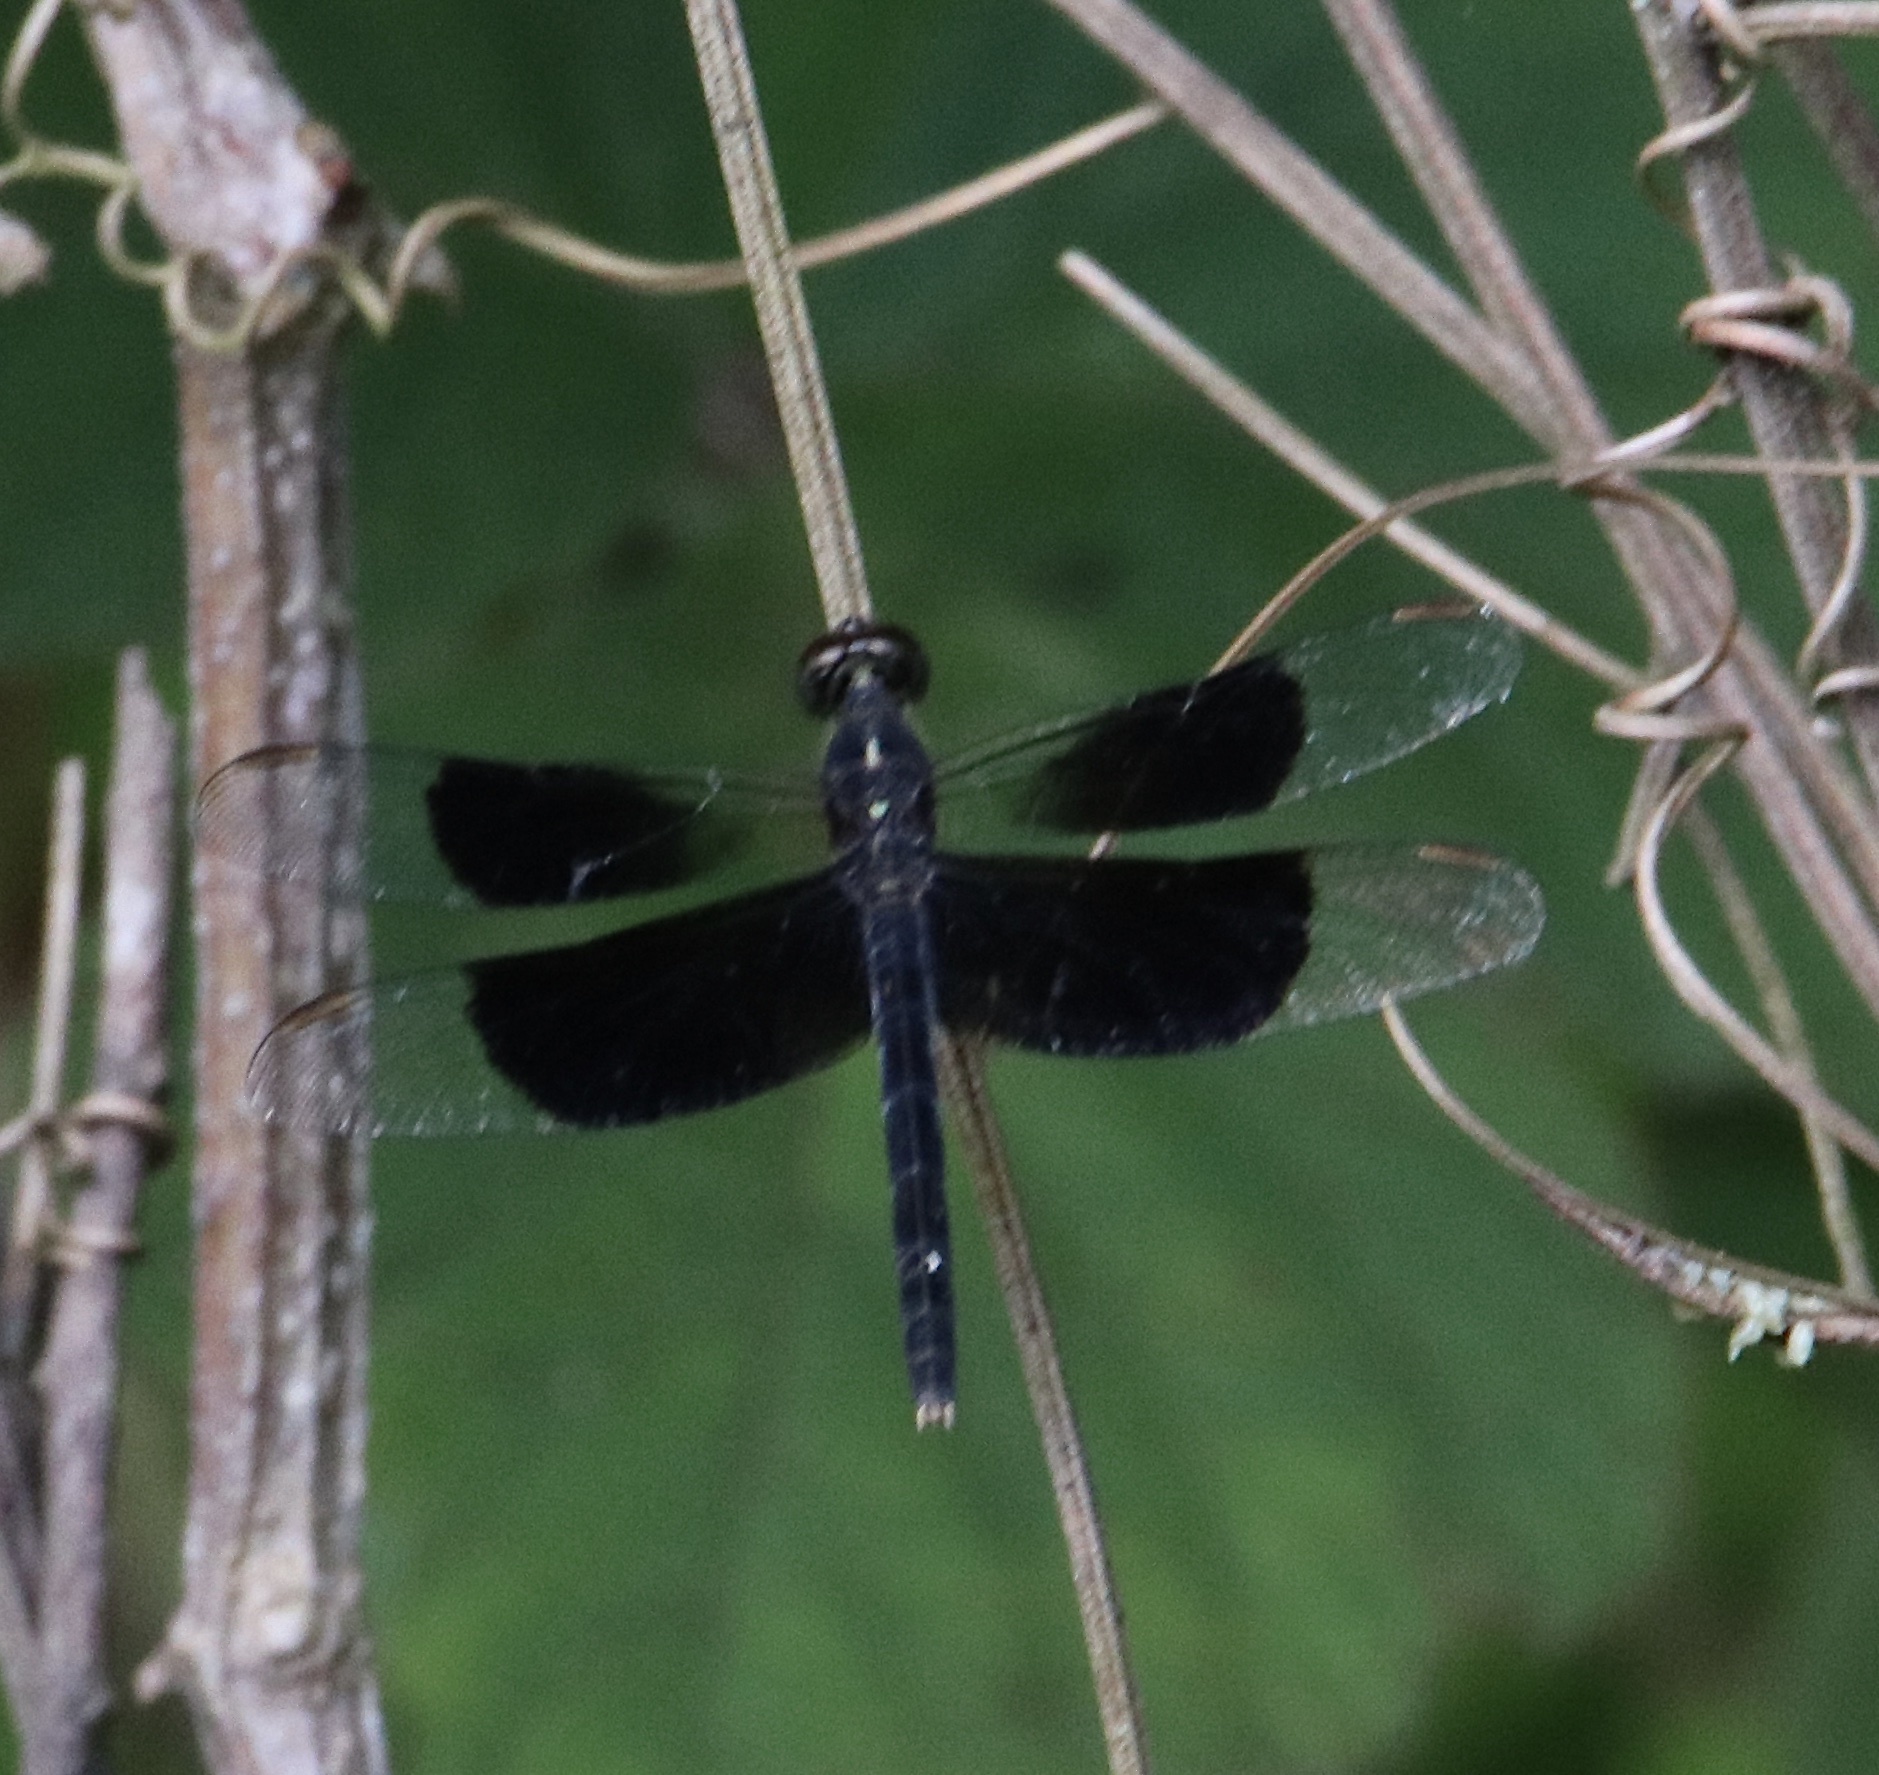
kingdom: Animalia
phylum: Arthropoda
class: Insecta
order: Odonata
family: Libellulidae
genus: Erythrodiplax
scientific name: Erythrodiplax funerea
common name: Black-winged dragonlet
